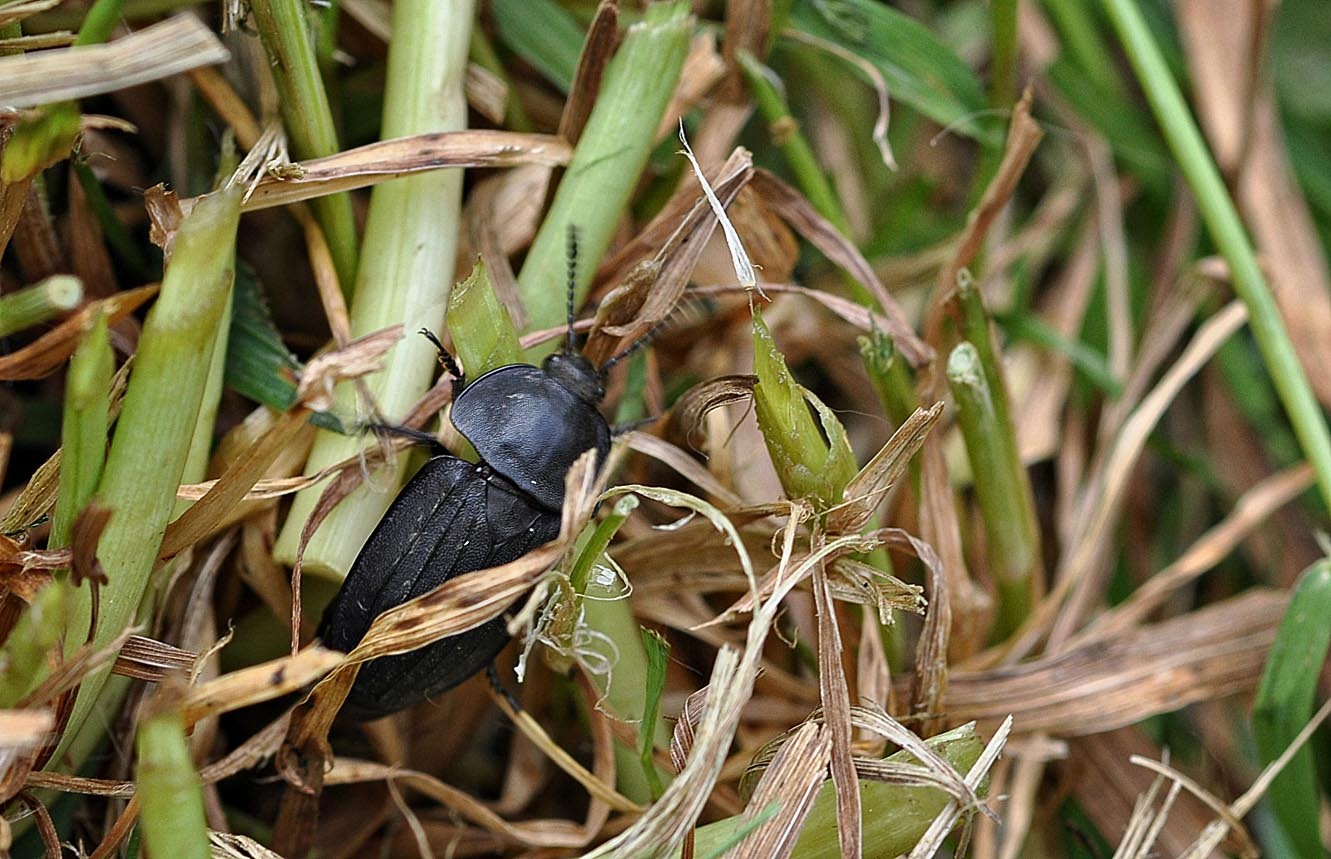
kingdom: Animalia
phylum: Arthropoda
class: Insecta
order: Coleoptera
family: Staphylinidae
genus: Silpha
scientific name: Silpha tristis
